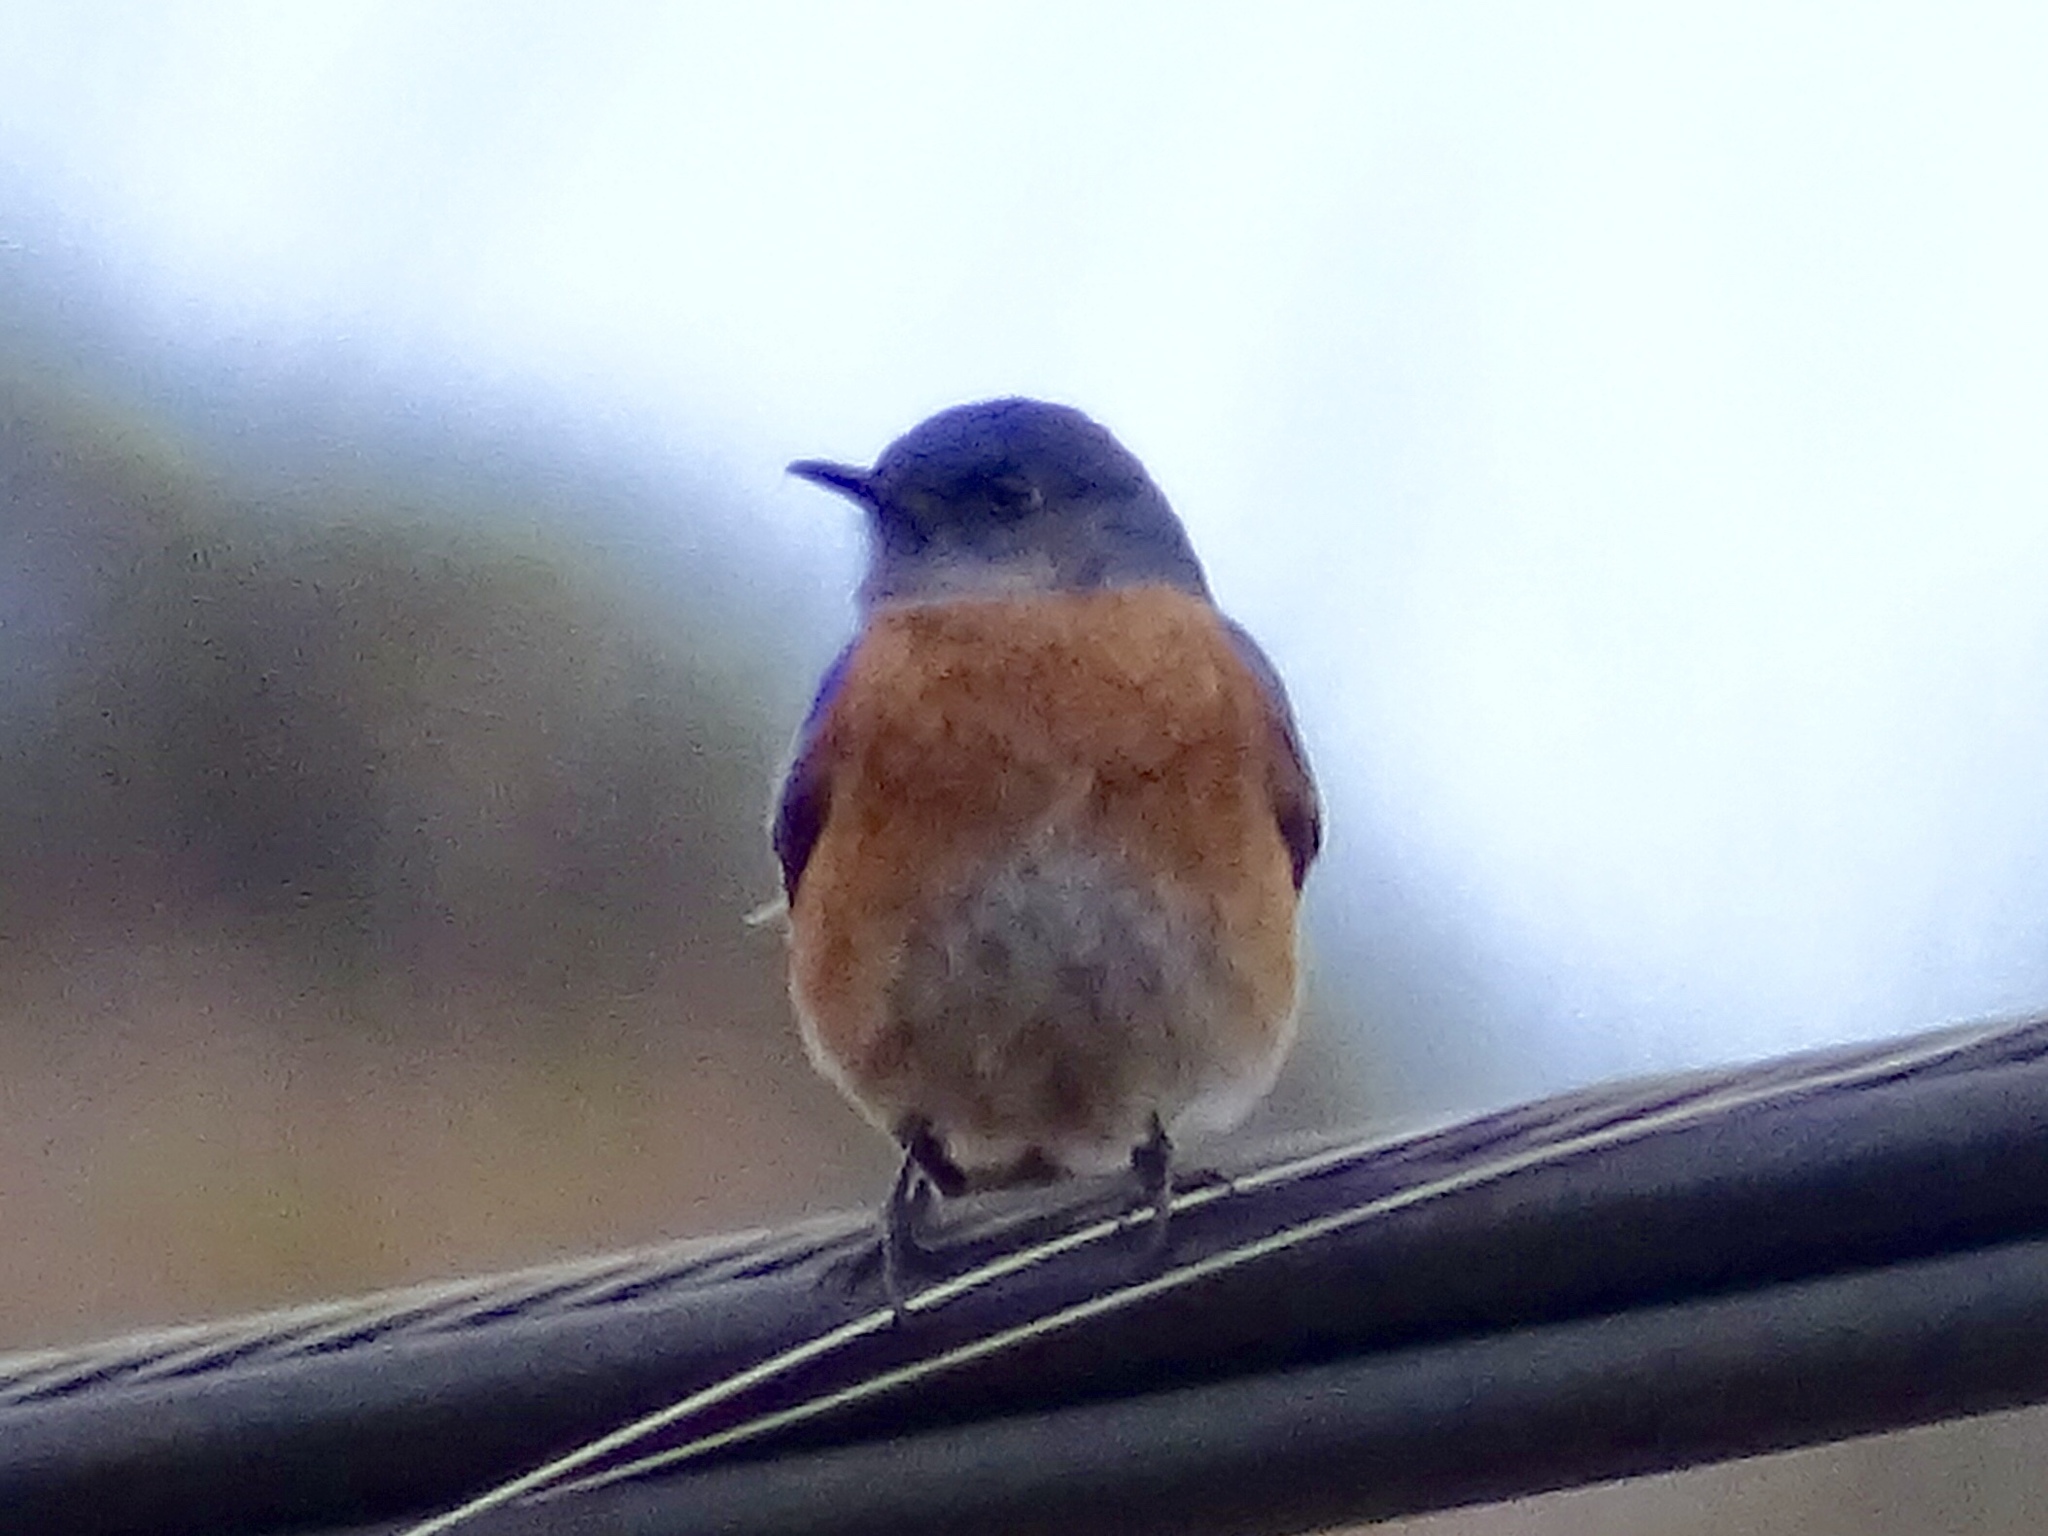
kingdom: Animalia
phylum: Chordata
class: Aves
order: Passeriformes
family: Turdidae
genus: Sialia
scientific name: Sialia mexicana
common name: Western bluebird
